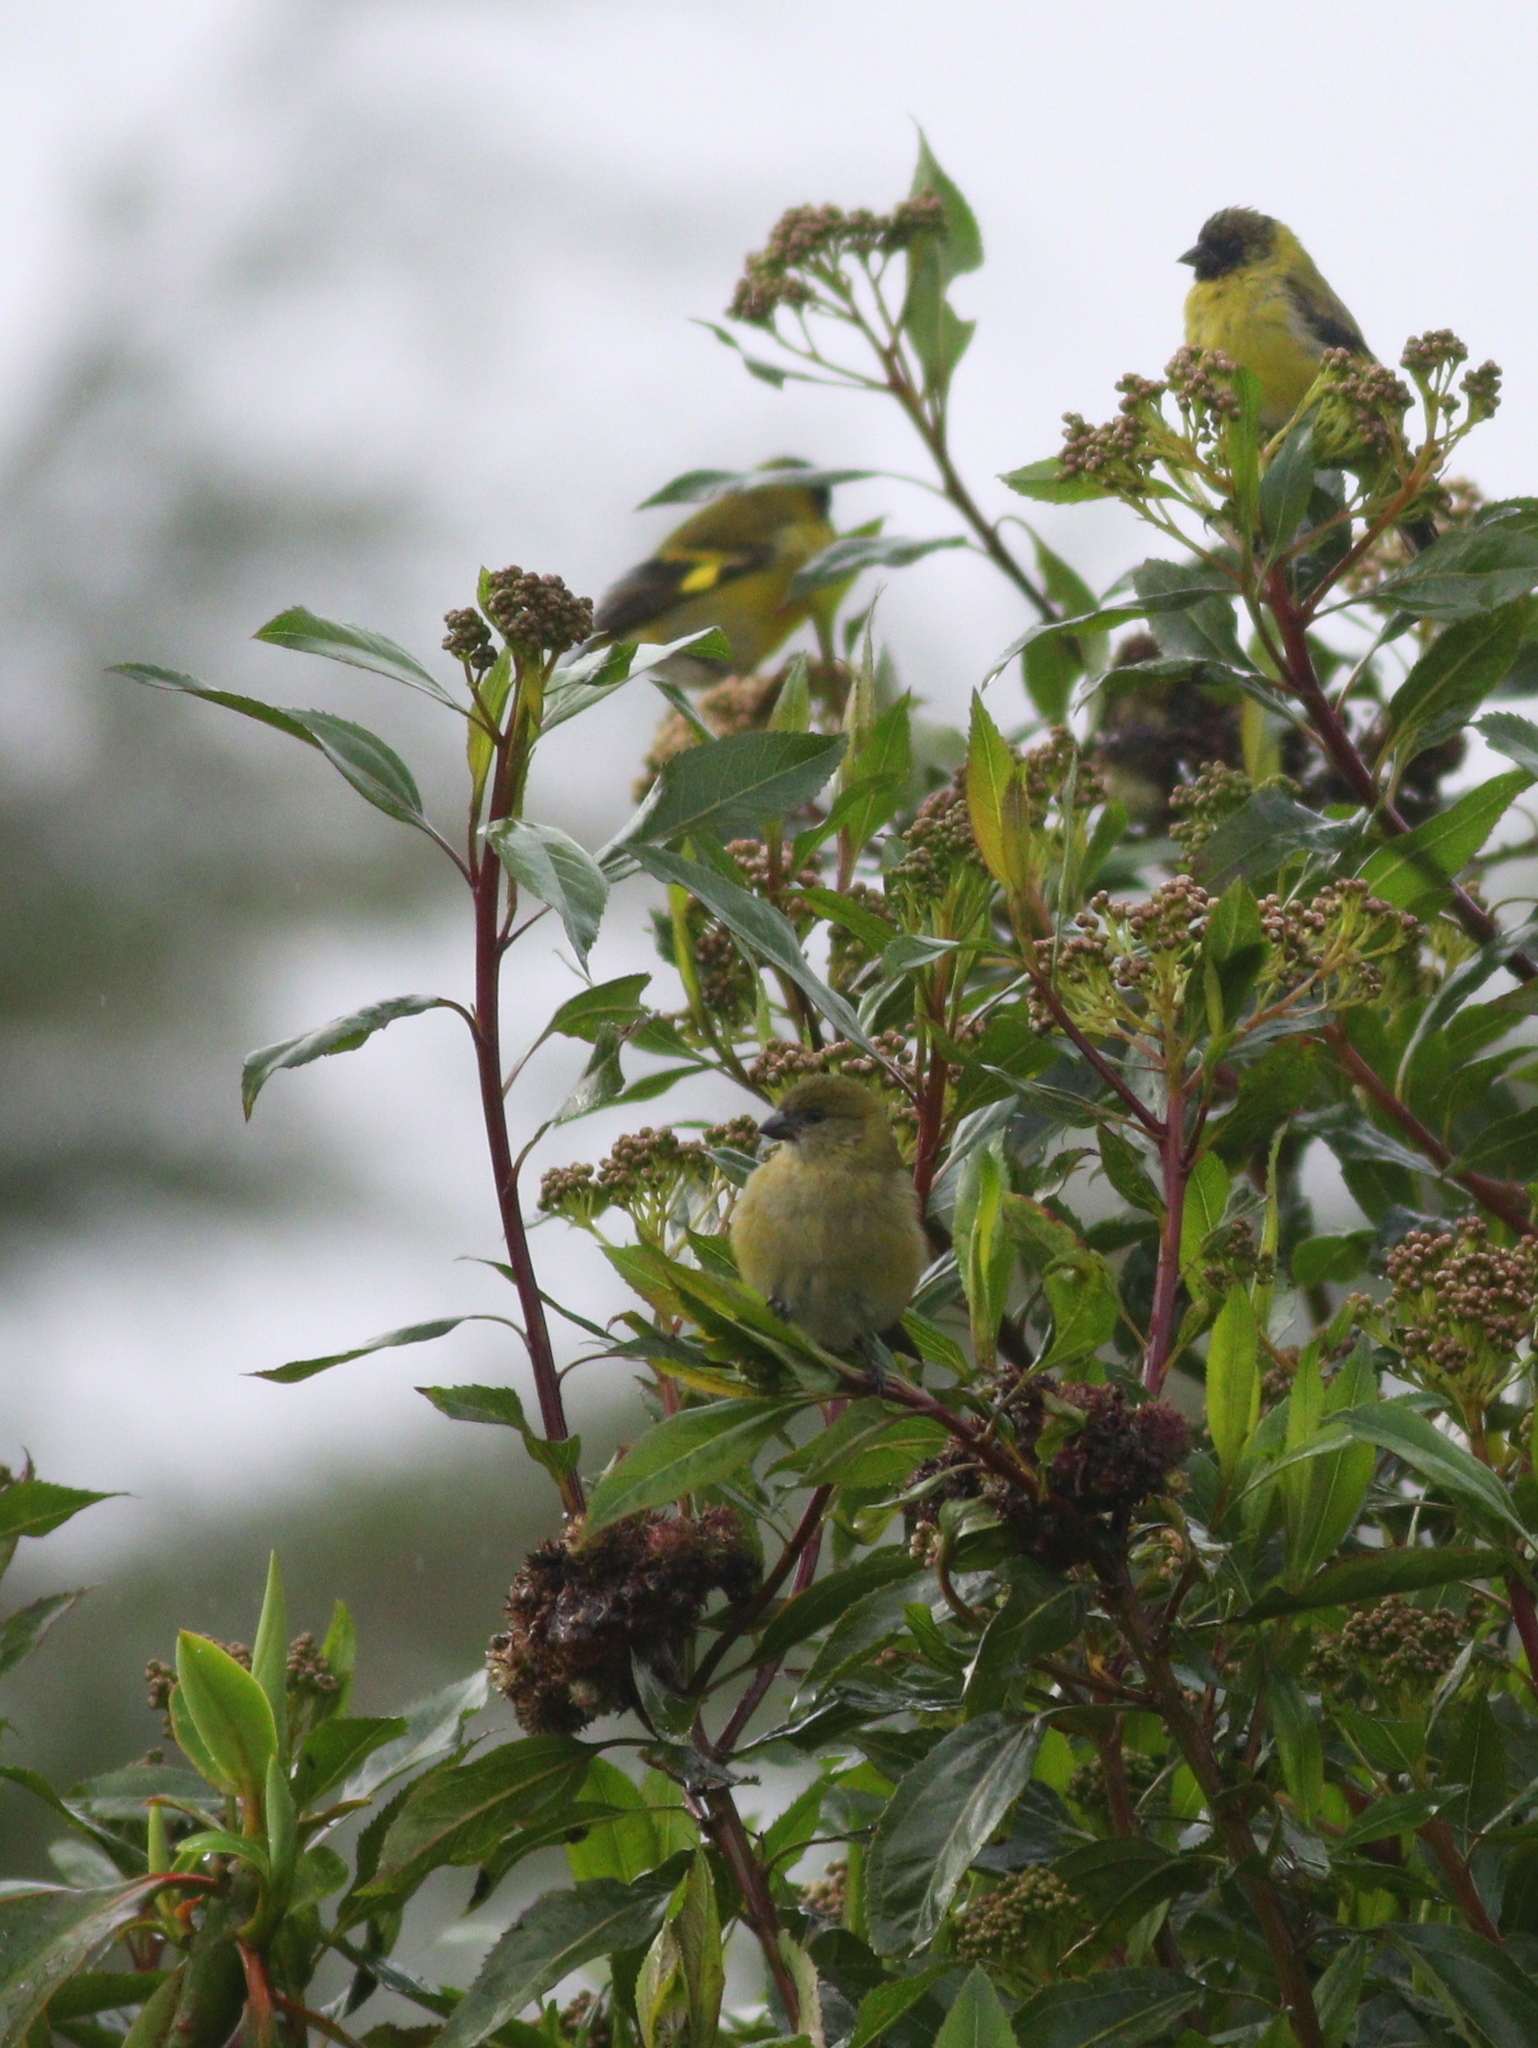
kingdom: Animalia
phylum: Chordata
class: Aves
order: Passeriformes
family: Fringillidae
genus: Spinus
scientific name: Spinus magellanicus
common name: Hooded siskin
